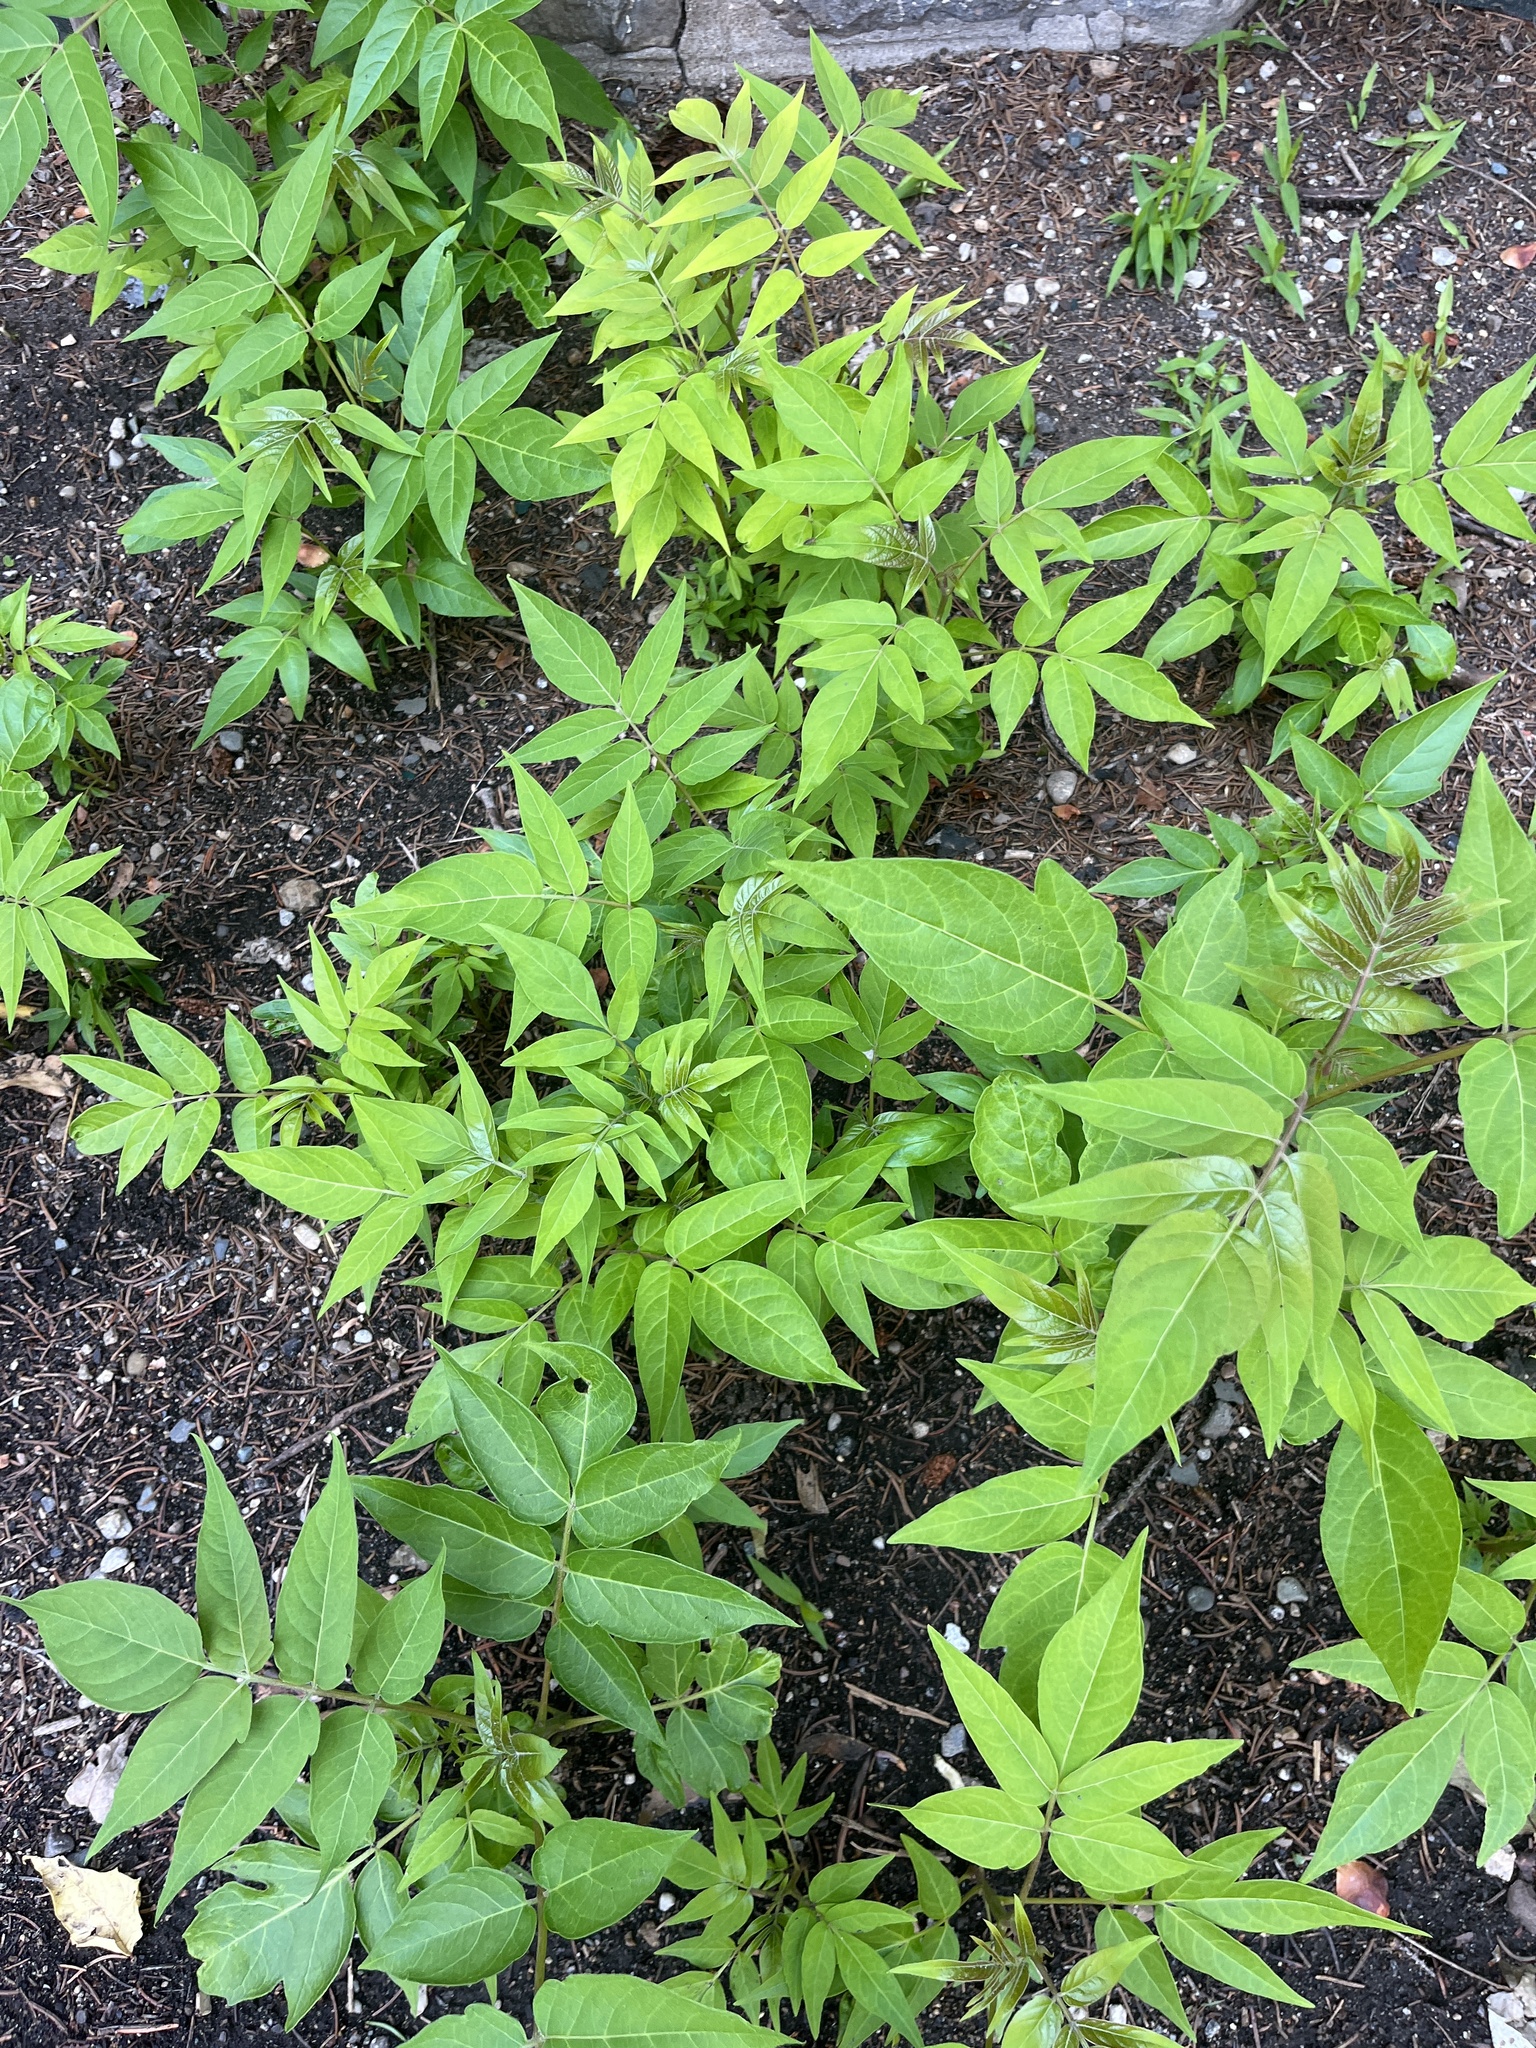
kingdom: Plantae
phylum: Tracheophyta
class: Magnoliopsida
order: Sapindales
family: Simaroubaceae
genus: Ailanthus
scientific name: Ailanthus altissima
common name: Tree-of-heaven
